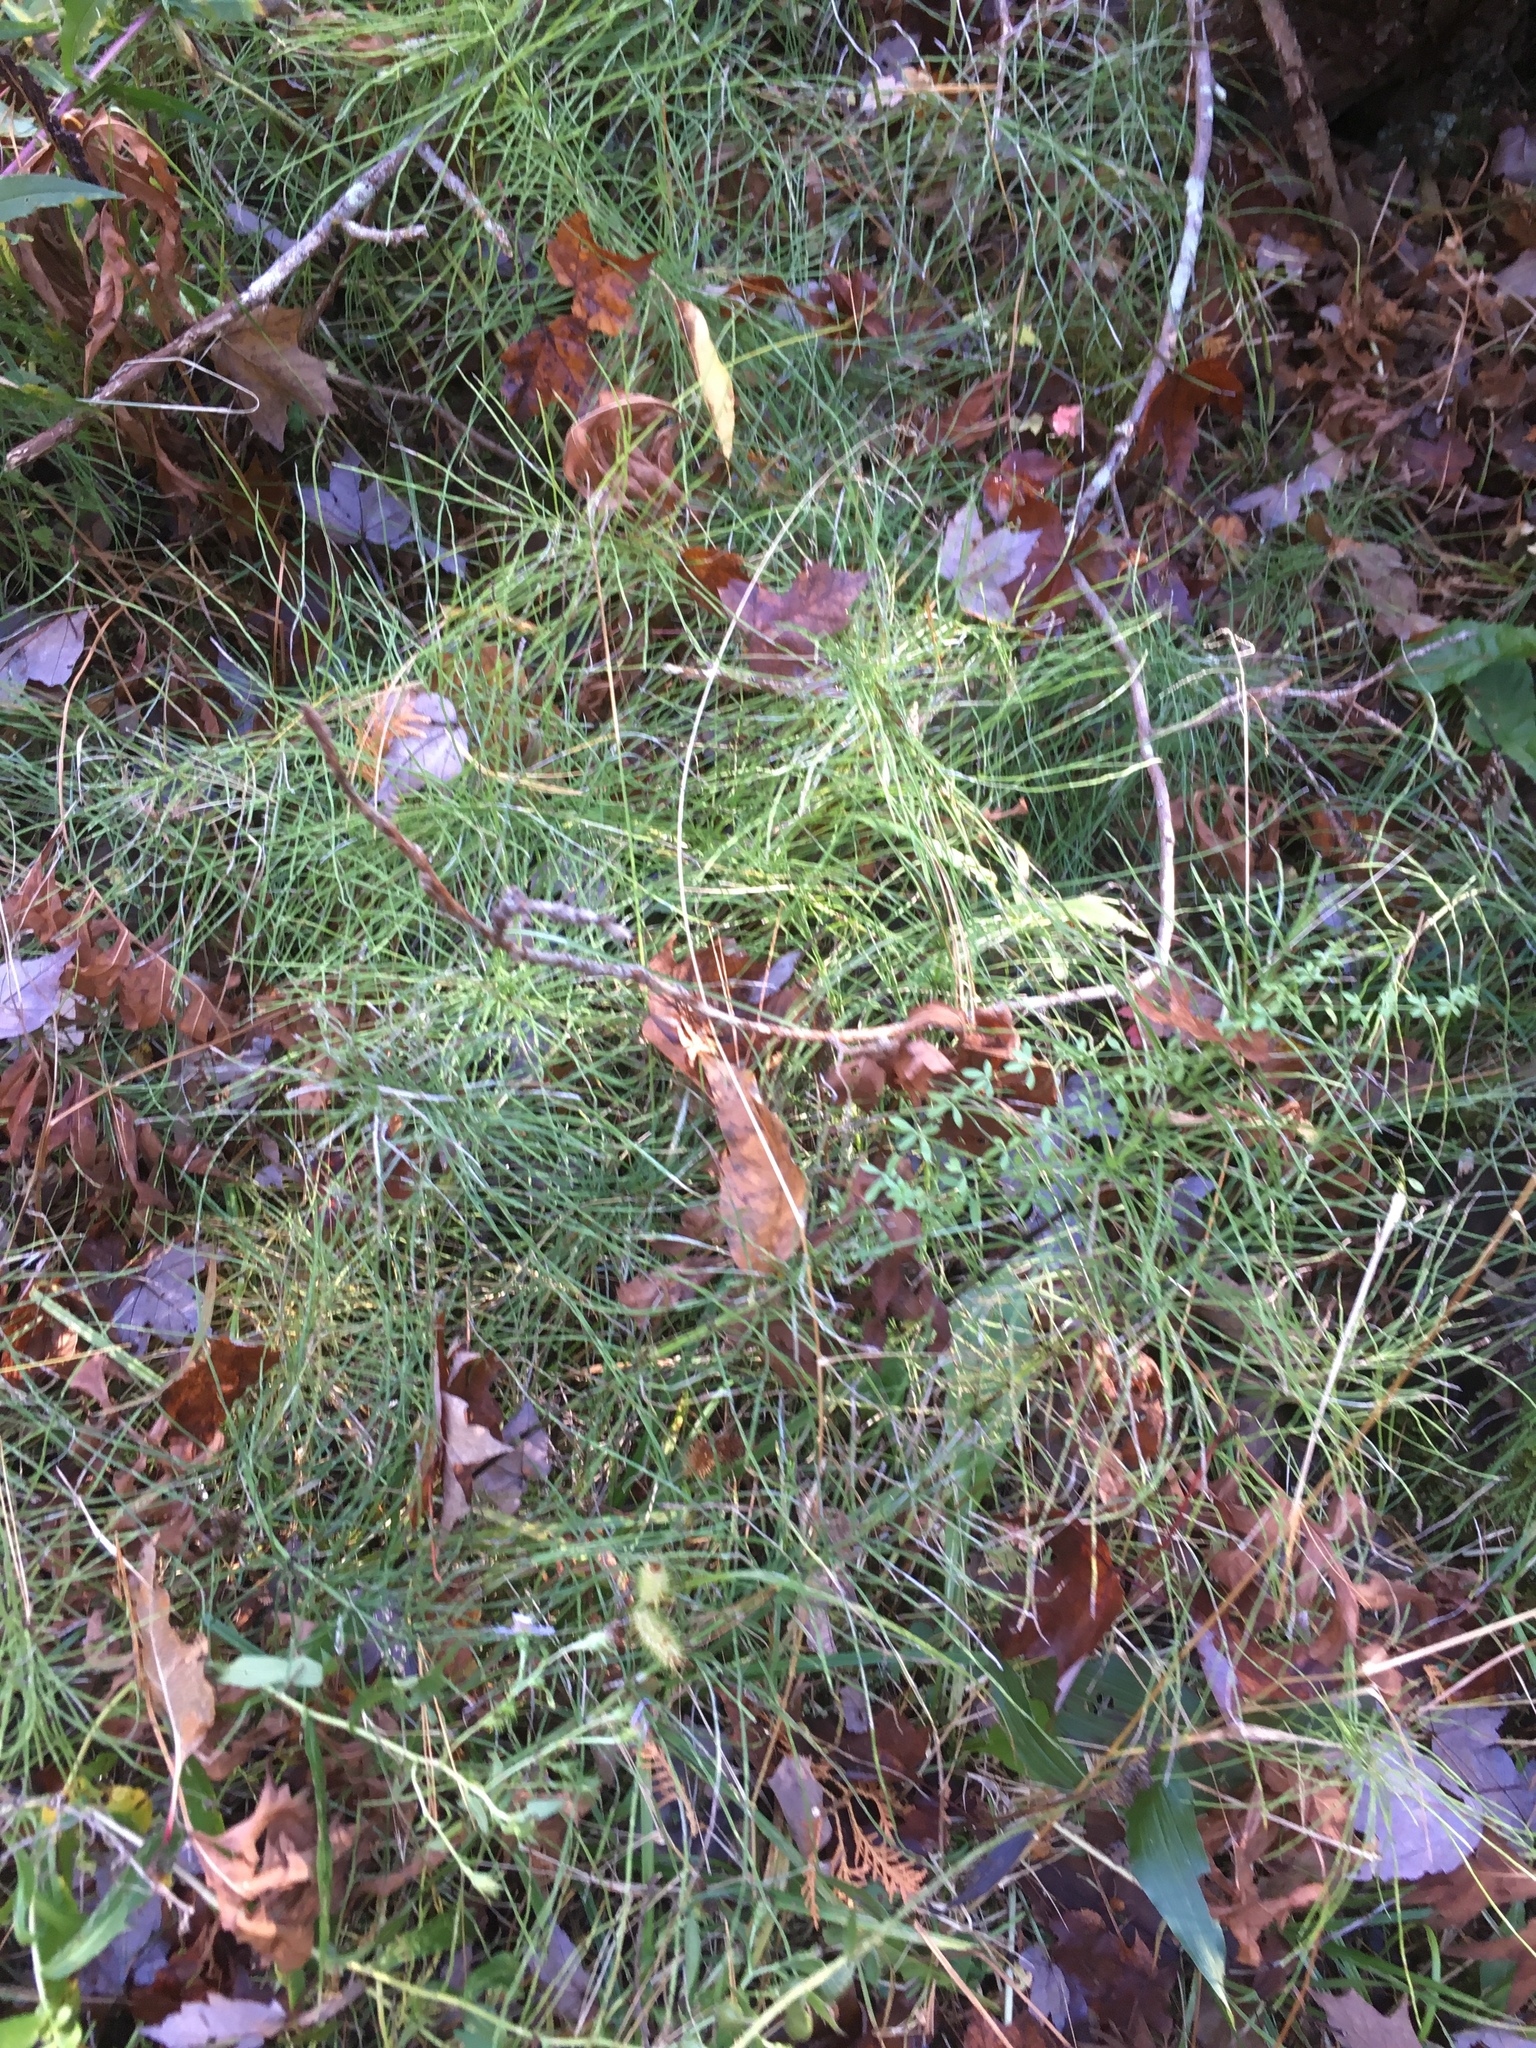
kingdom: Plantae
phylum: Tracheophyta
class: Polypodiopsida
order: Equisetales
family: Equisetaceae
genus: Equisetum
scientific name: Equisetum arvense
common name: Field horsetail
